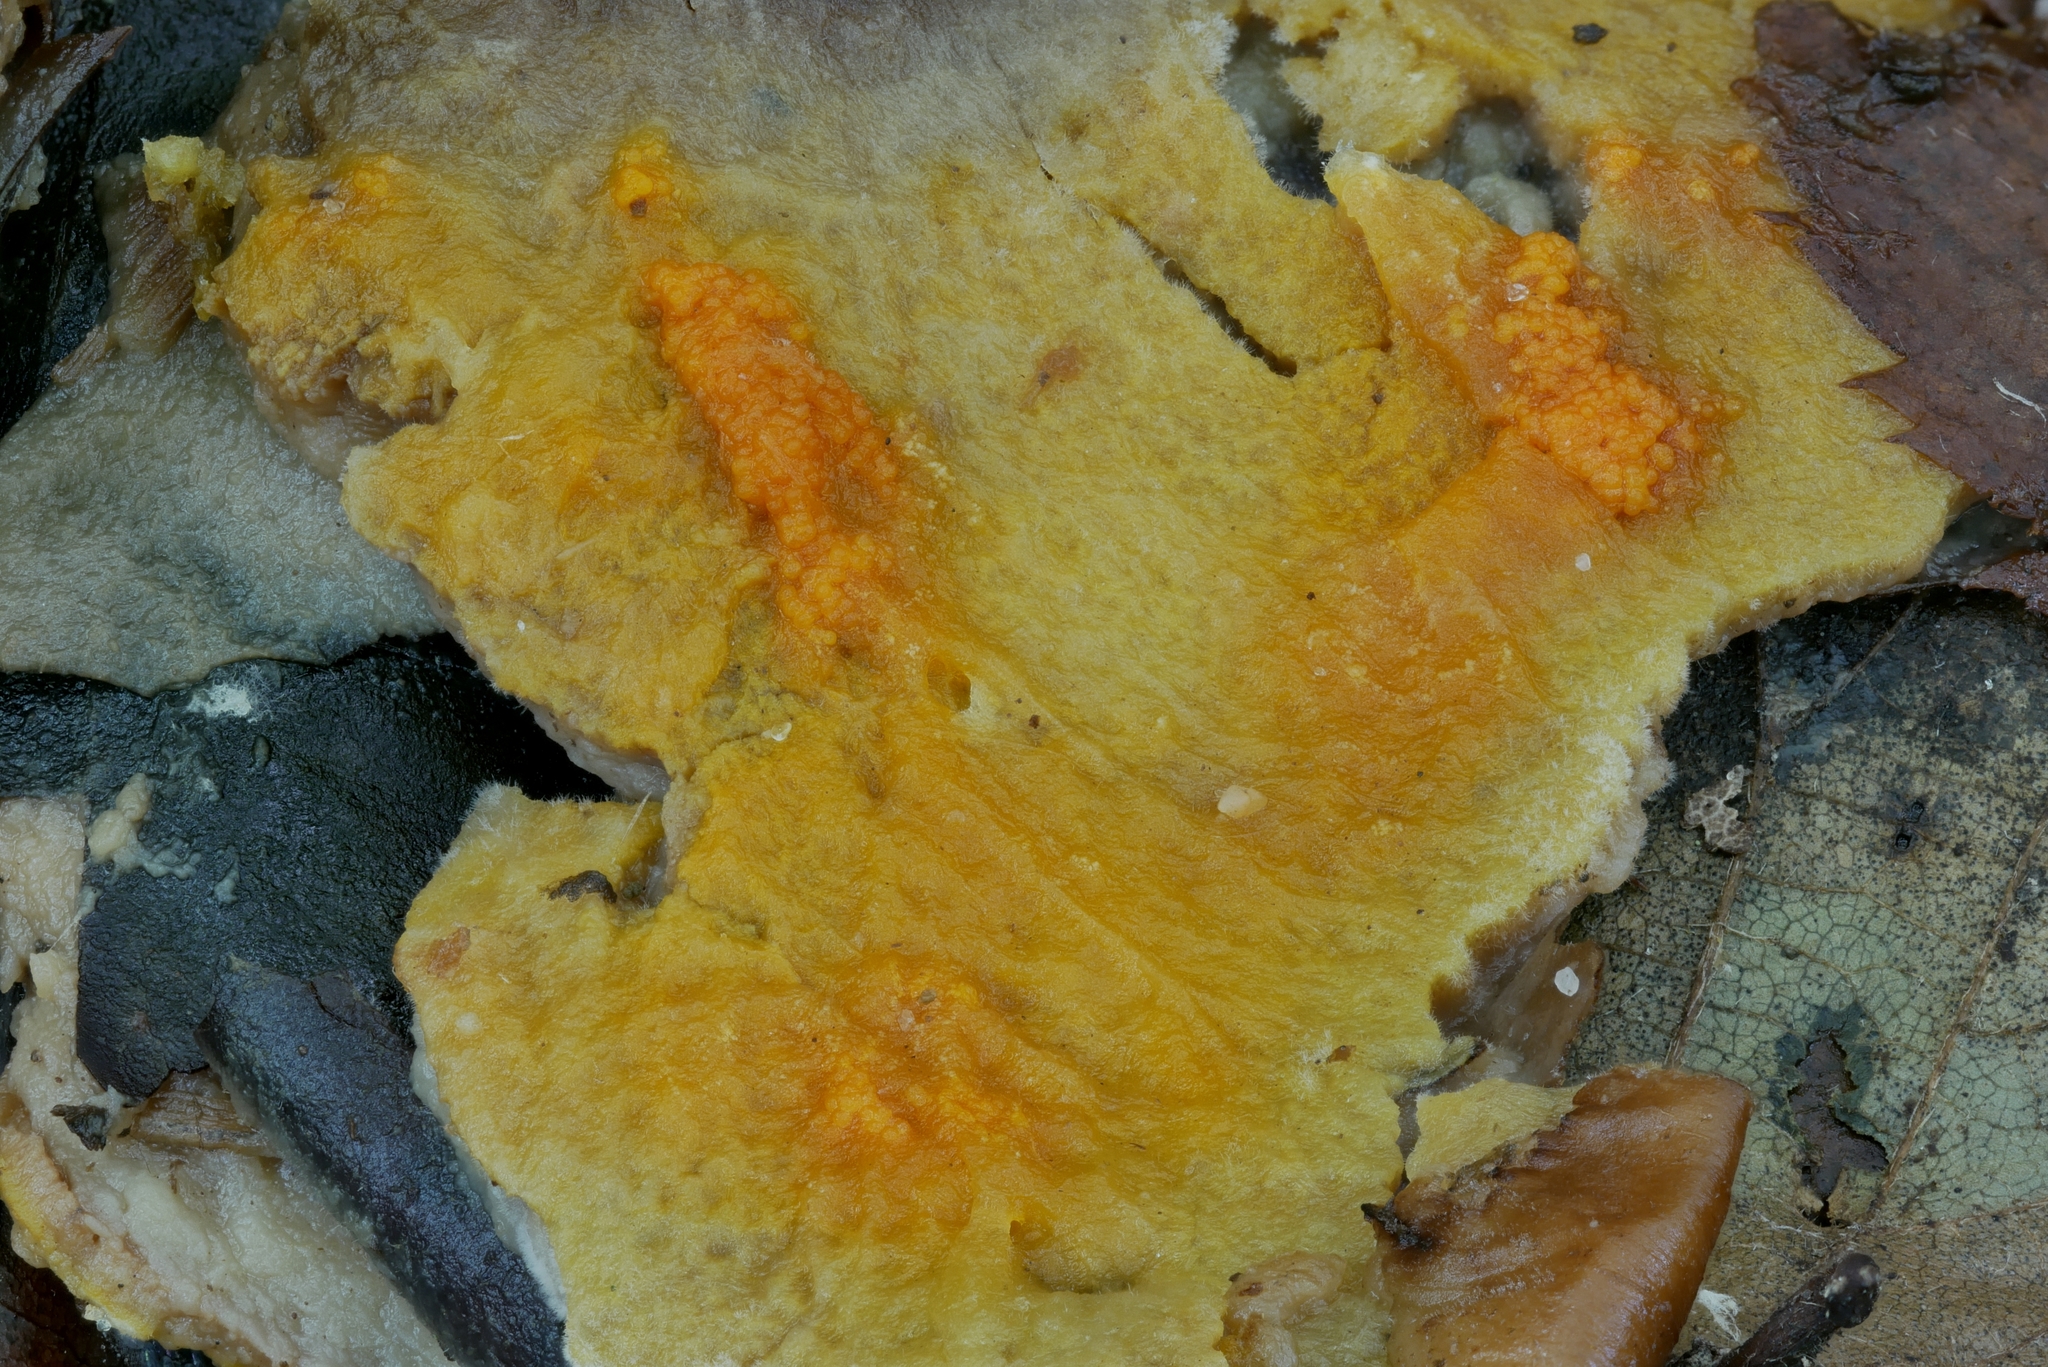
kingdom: Fungi
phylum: Ascomycota
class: Sordariomycetes
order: Hypocreales
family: Hypocreaceae
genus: Hypomyces
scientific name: Hypomyces aurantius
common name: Orange polypore mould
